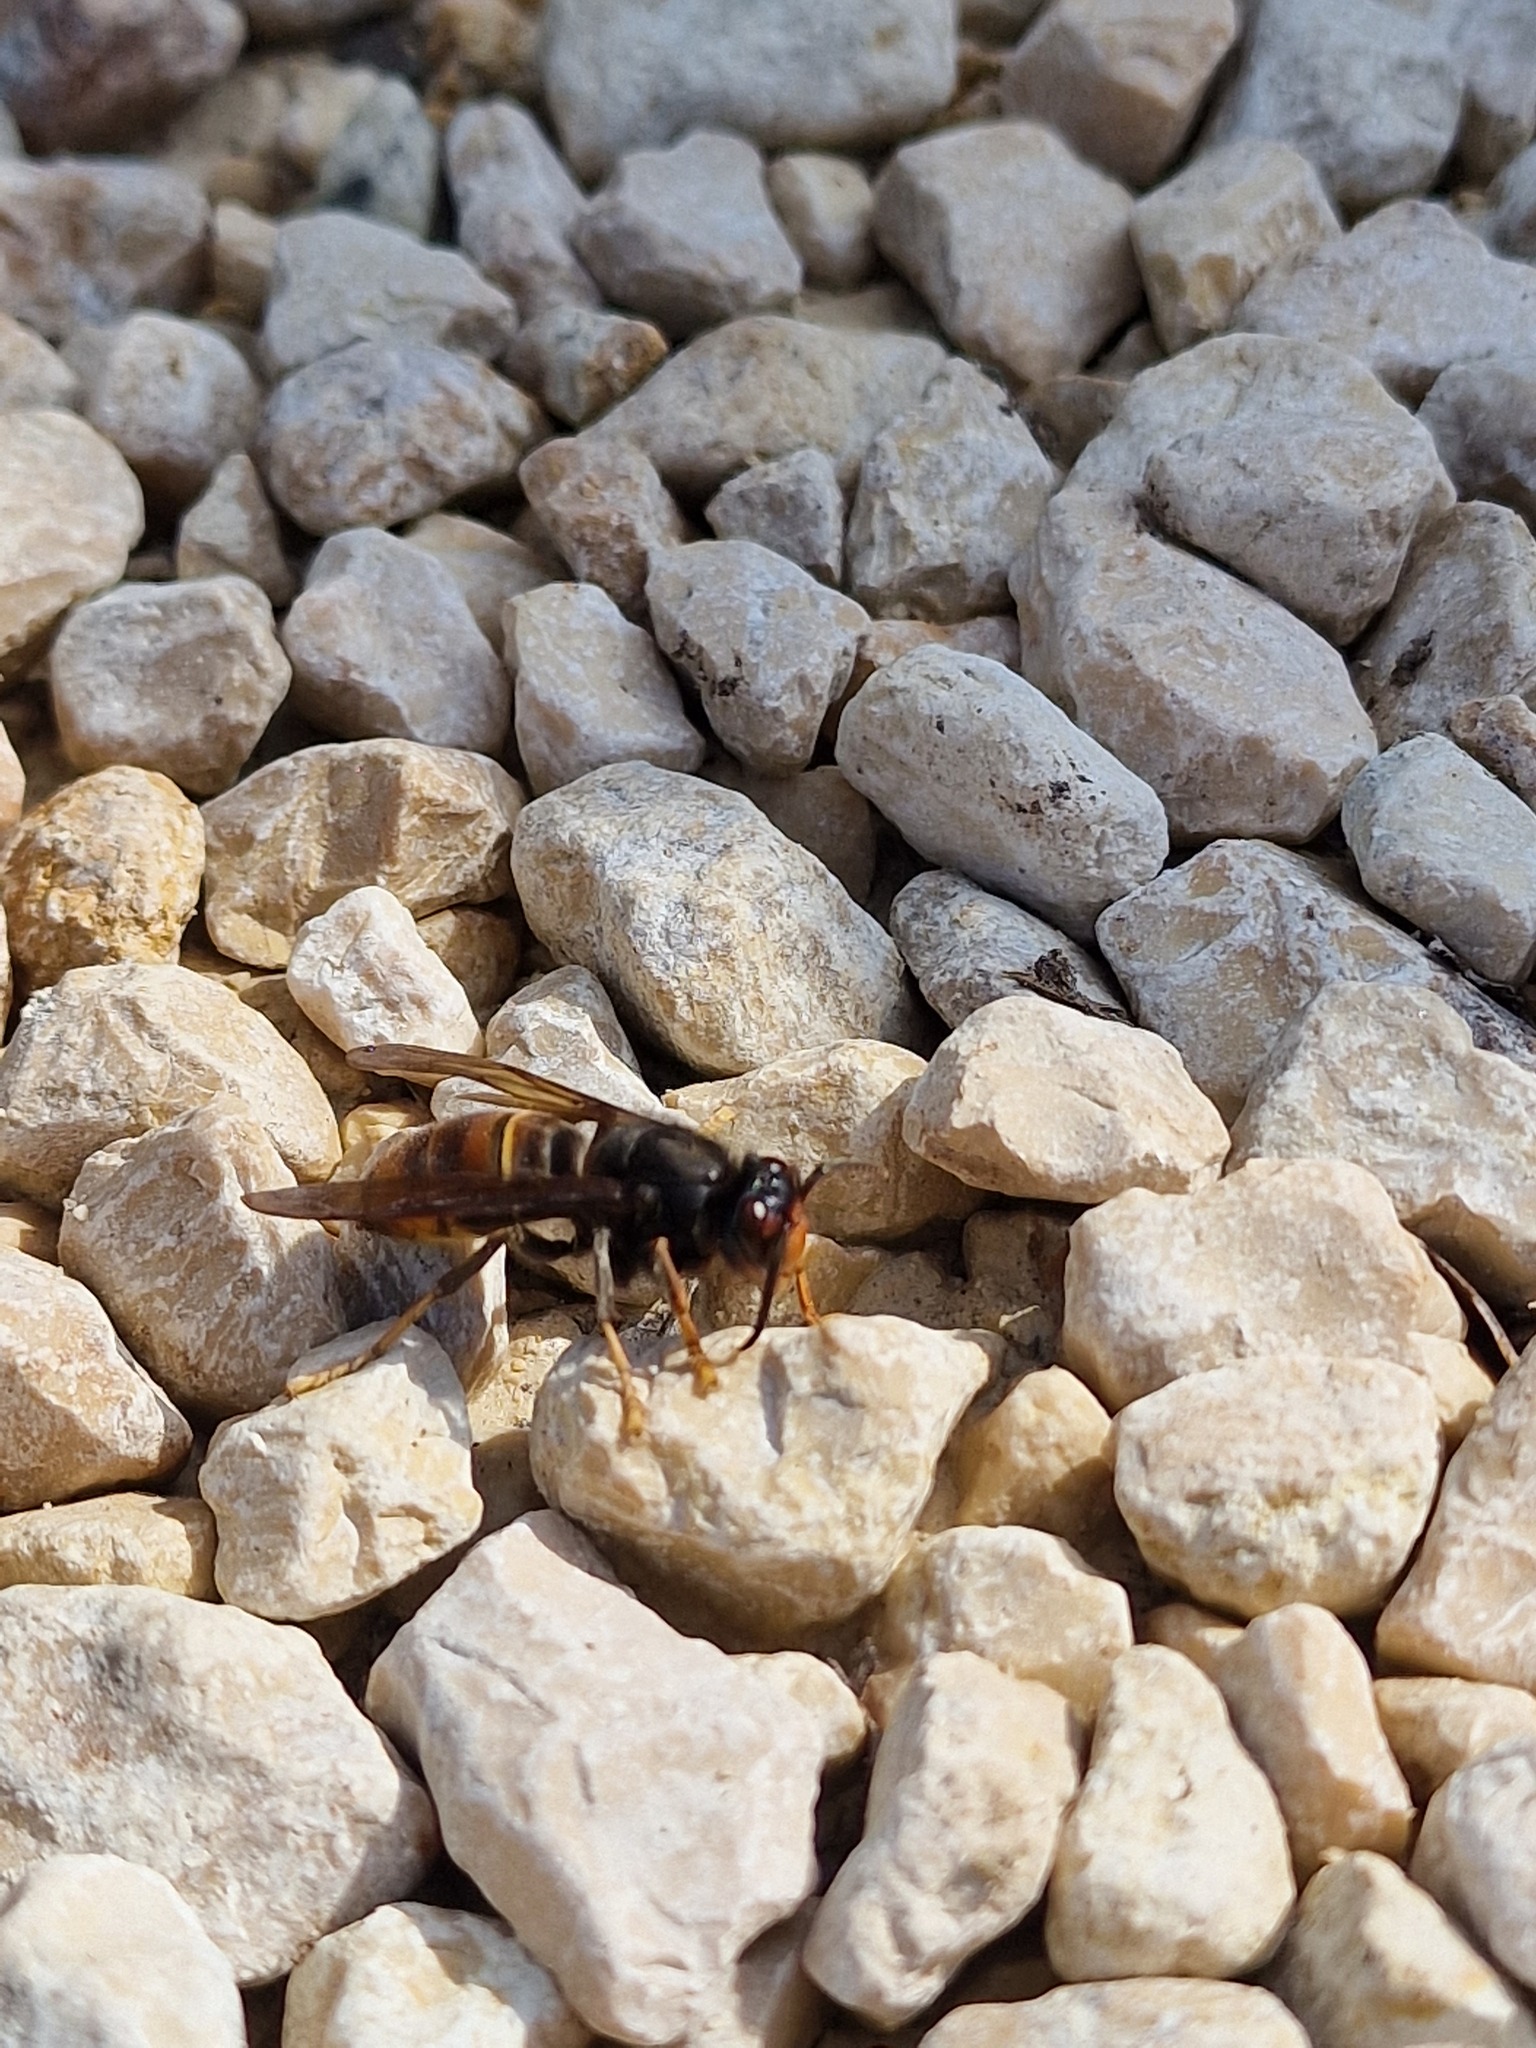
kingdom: Animalia
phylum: Arthropoda
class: Insecta
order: Hymenoptera
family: Vespidae
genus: Vespa
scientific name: Vespa velutina
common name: Asian hornet
